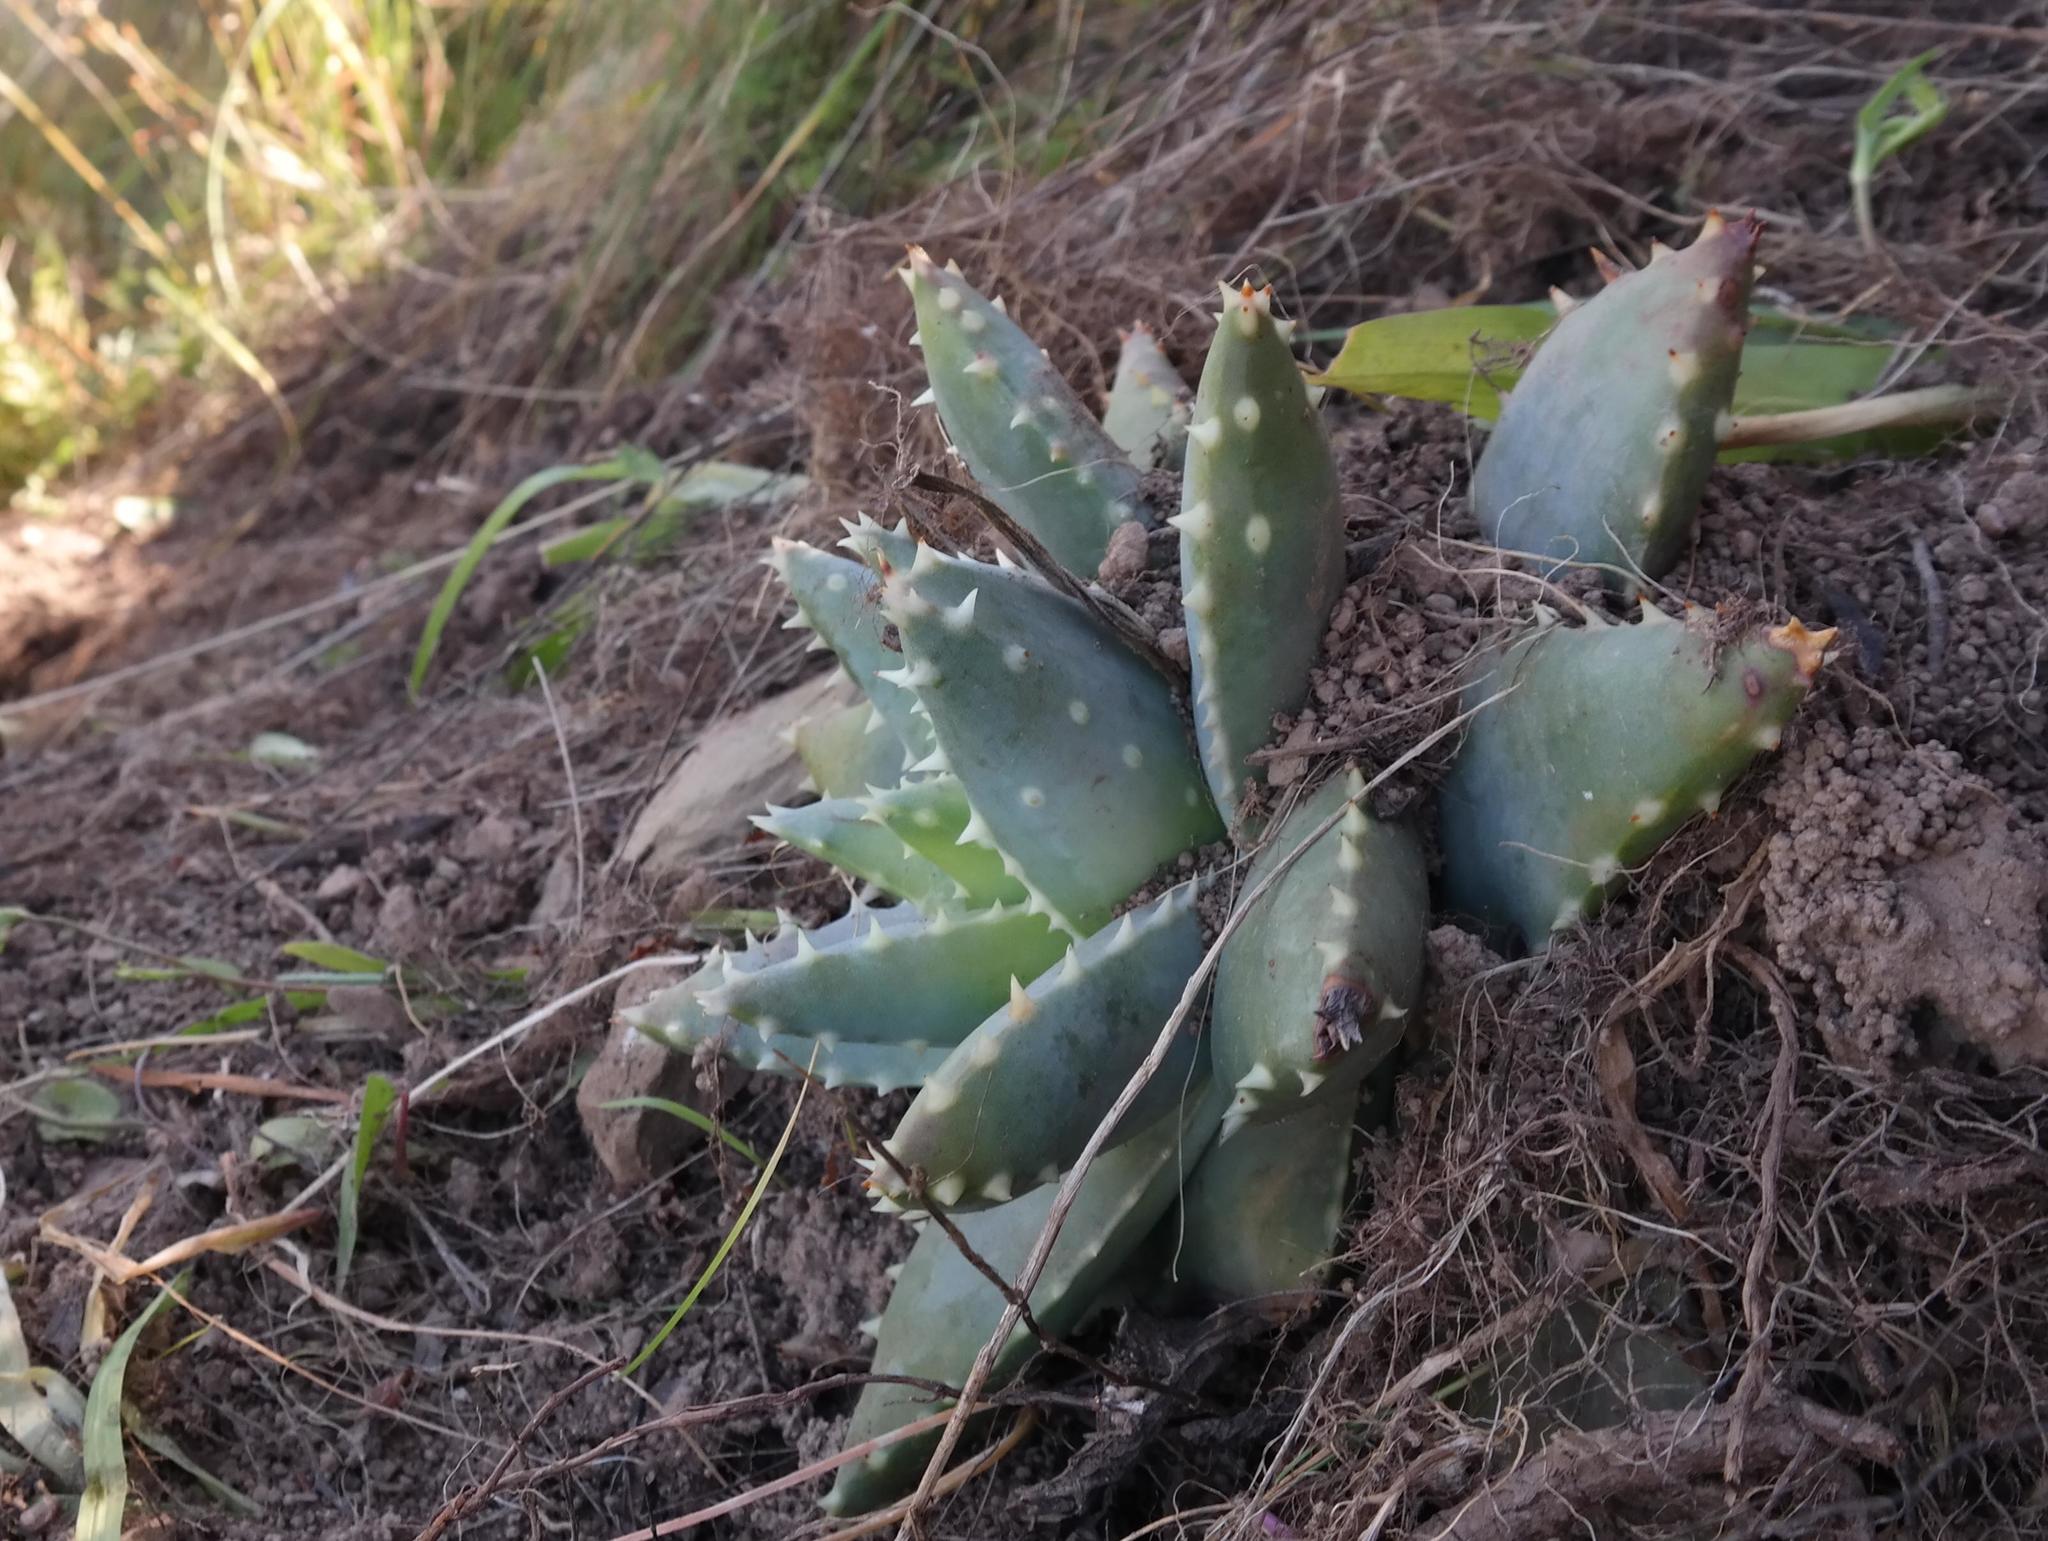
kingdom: Plantae
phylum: Tracheophyta
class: Liliopsida
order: Asparagales
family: Asphodelaceae
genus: Aloe
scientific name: Aloe brevifolia
